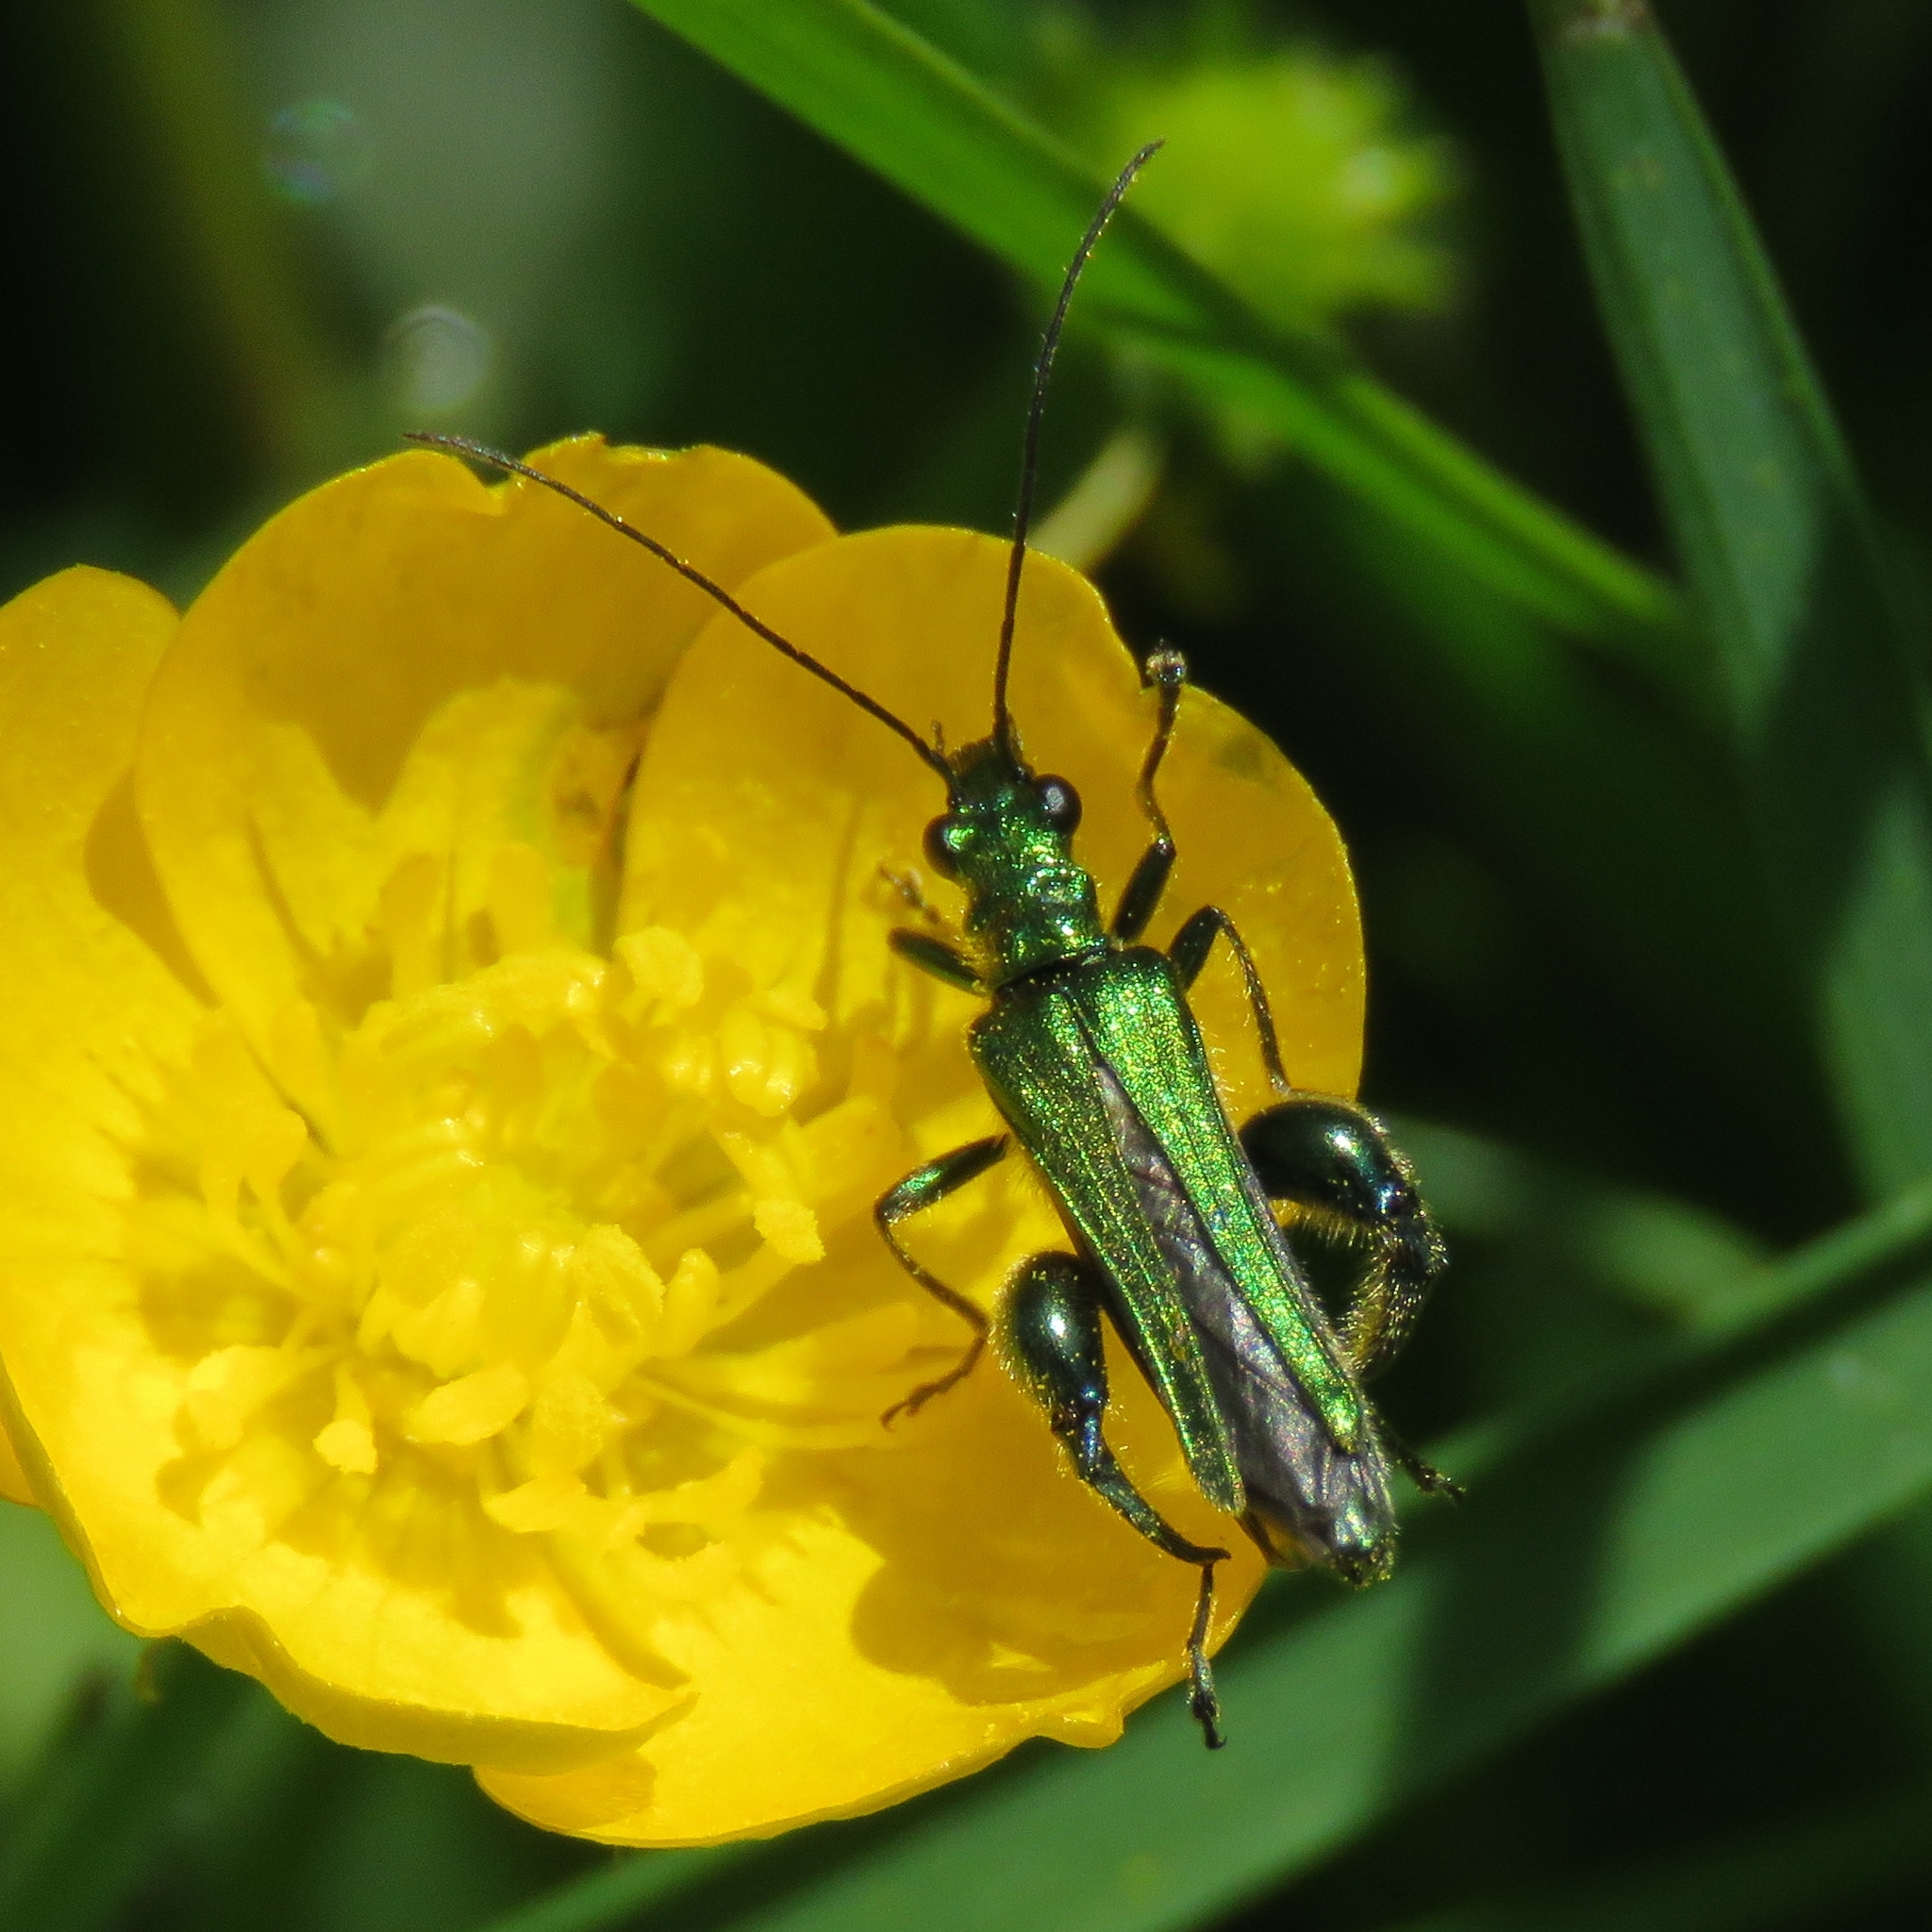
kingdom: Animalia
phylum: Arthropoda
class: Insecta
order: Coleoptera
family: Oedemeridae
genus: Oedemera
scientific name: Oedemera nobilis
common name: Swollen-thighed beetle
